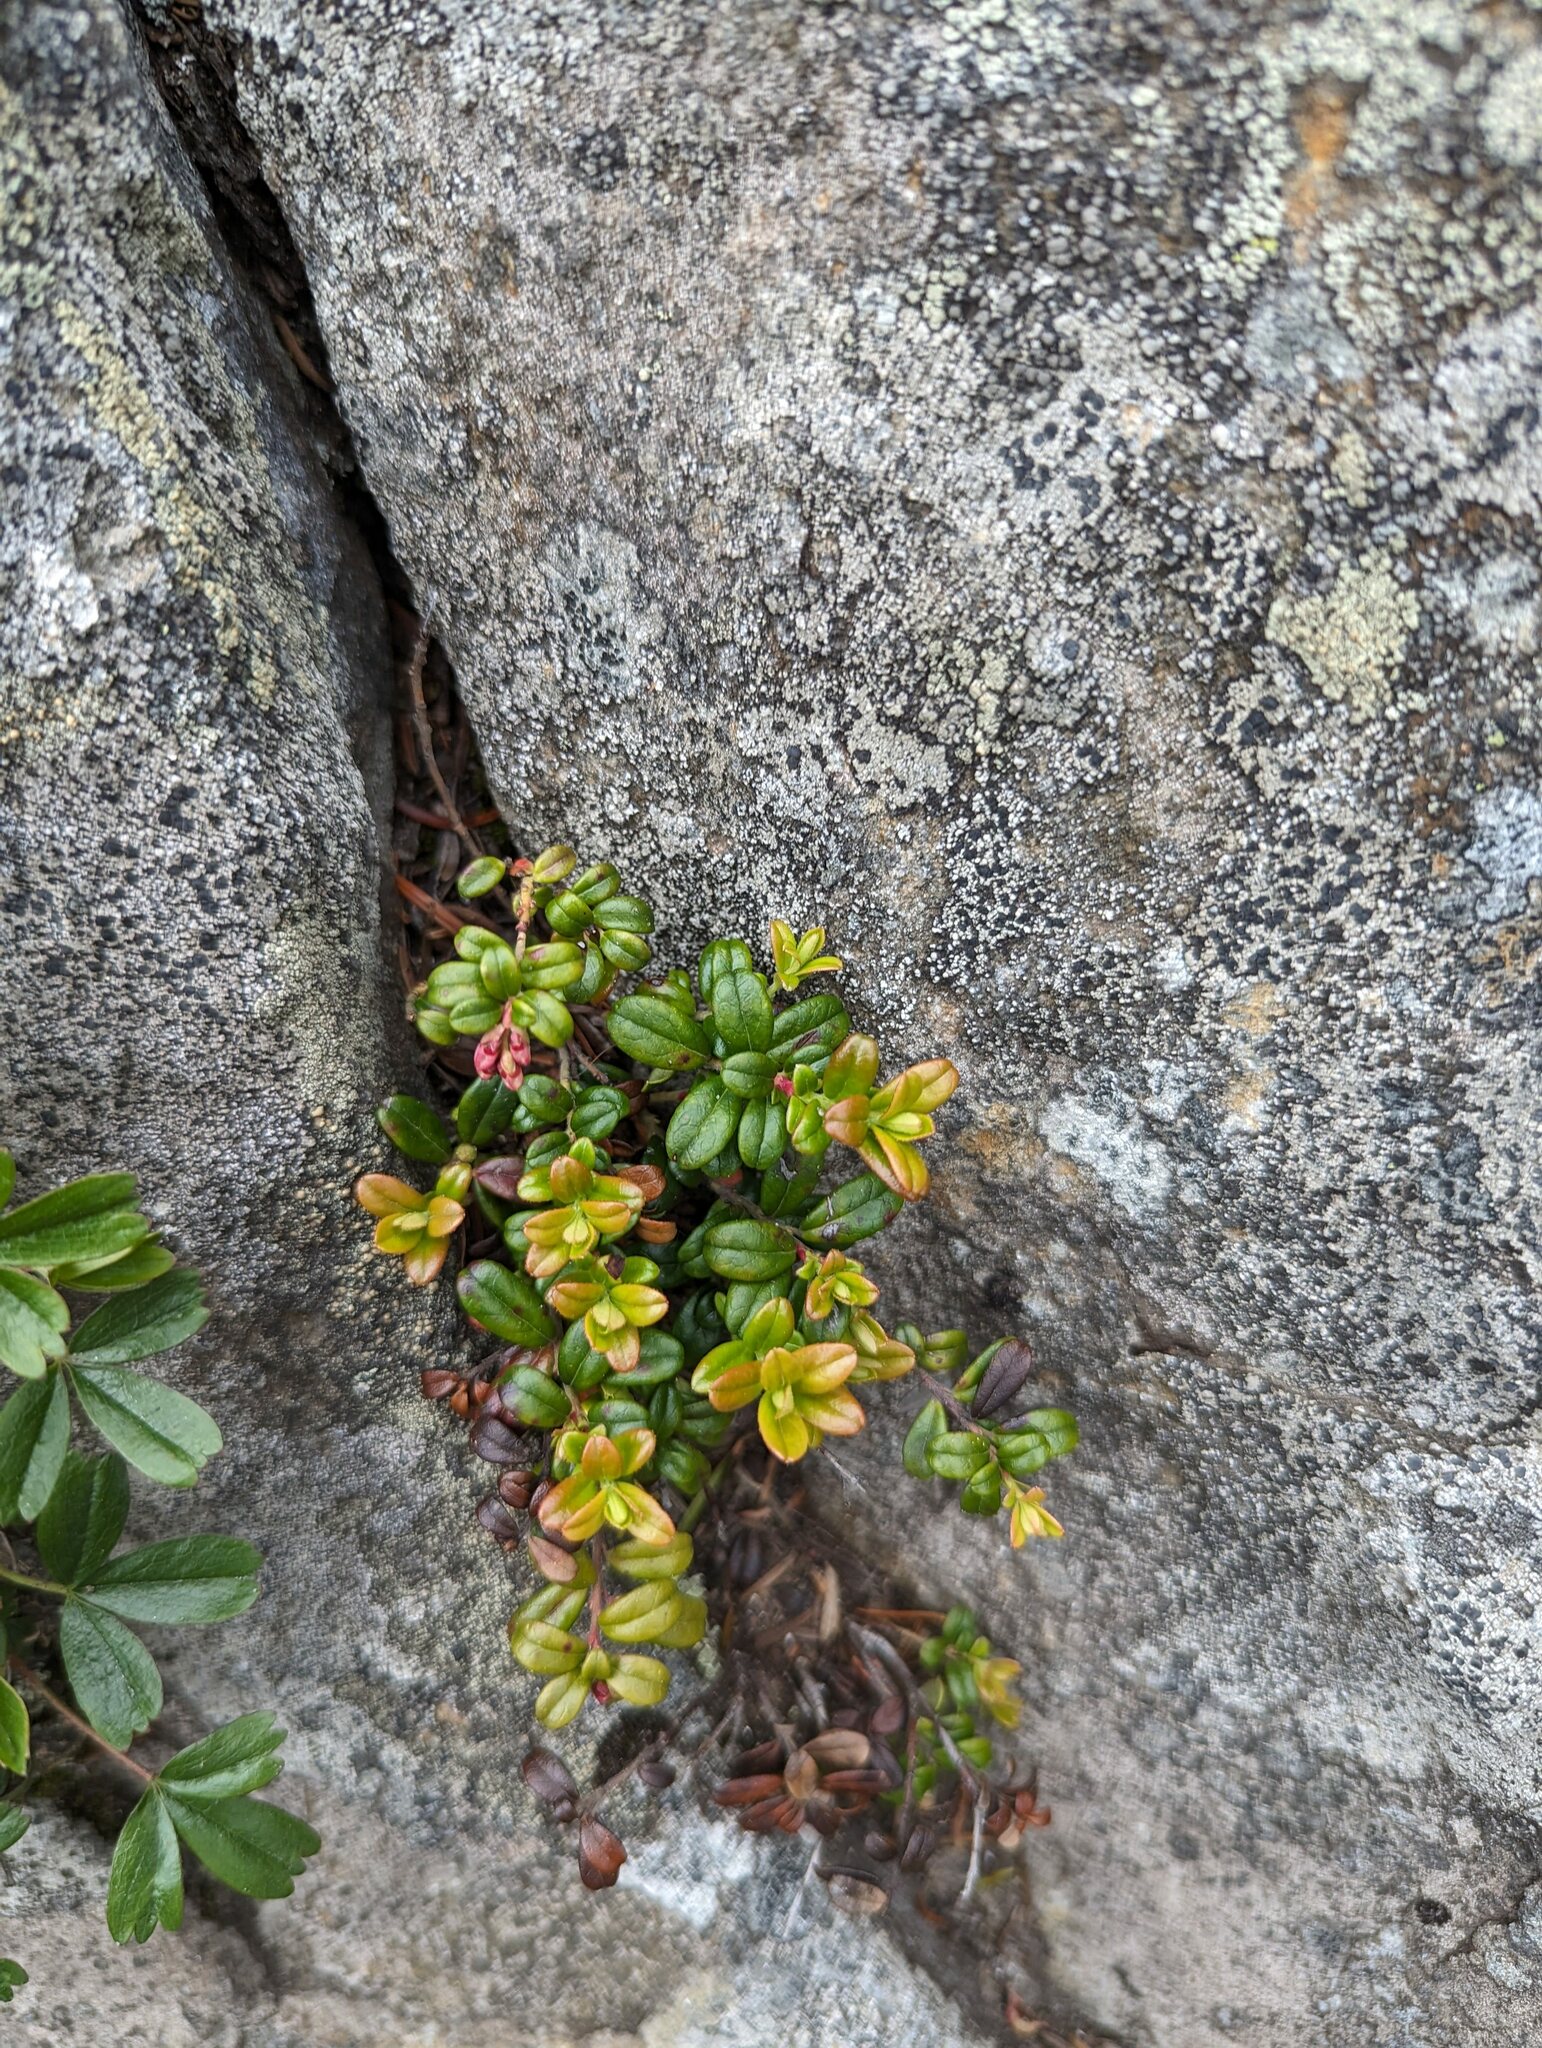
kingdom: Plantae
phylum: Tracheophyta
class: Magnoliopsida
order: Ericales
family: Ericaceae
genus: Vaccinium
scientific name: Vaccinium vitis-idaea
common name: Cowberry
